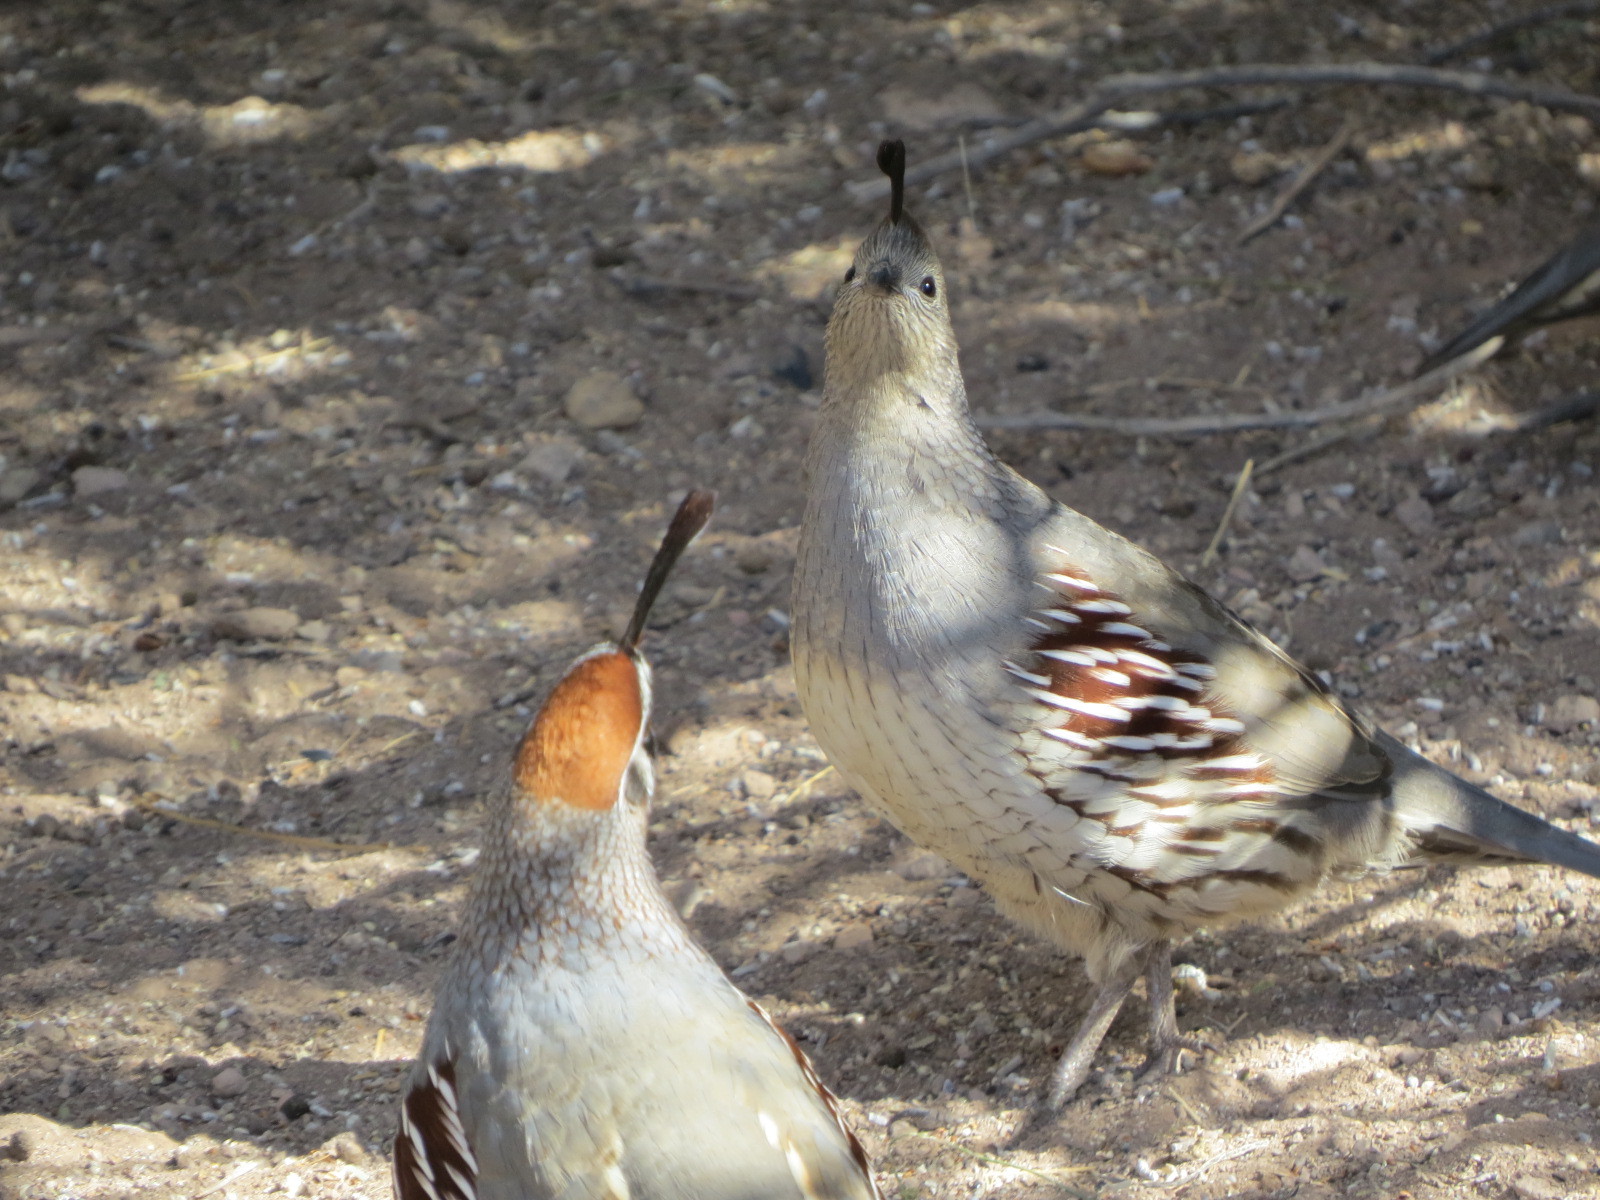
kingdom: Animalia
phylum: Chordata
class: Aves
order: Galliformes
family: Odontophoridae
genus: Callipepla
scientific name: Callipepla gambelii
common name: Gambel's quail
